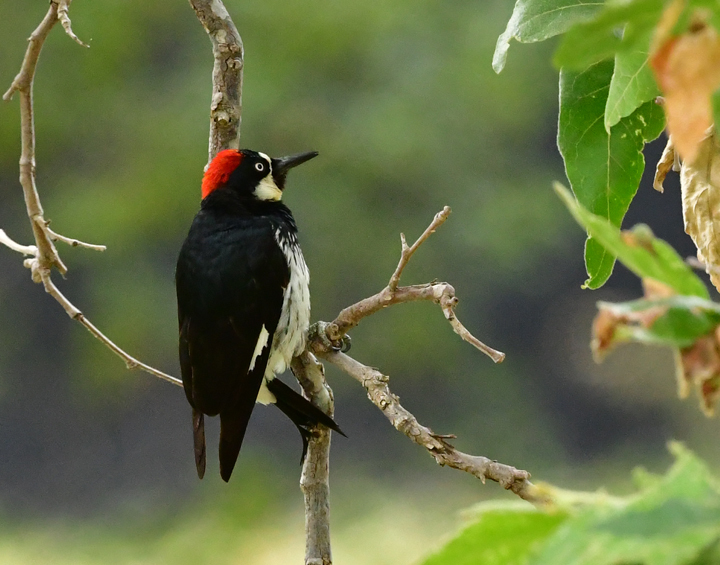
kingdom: Animalia
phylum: Chordata
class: Aves
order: Piciformes
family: Picidae
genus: Melanerpes
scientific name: Melanerpes formicivorus
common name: Acorn woodpecker
